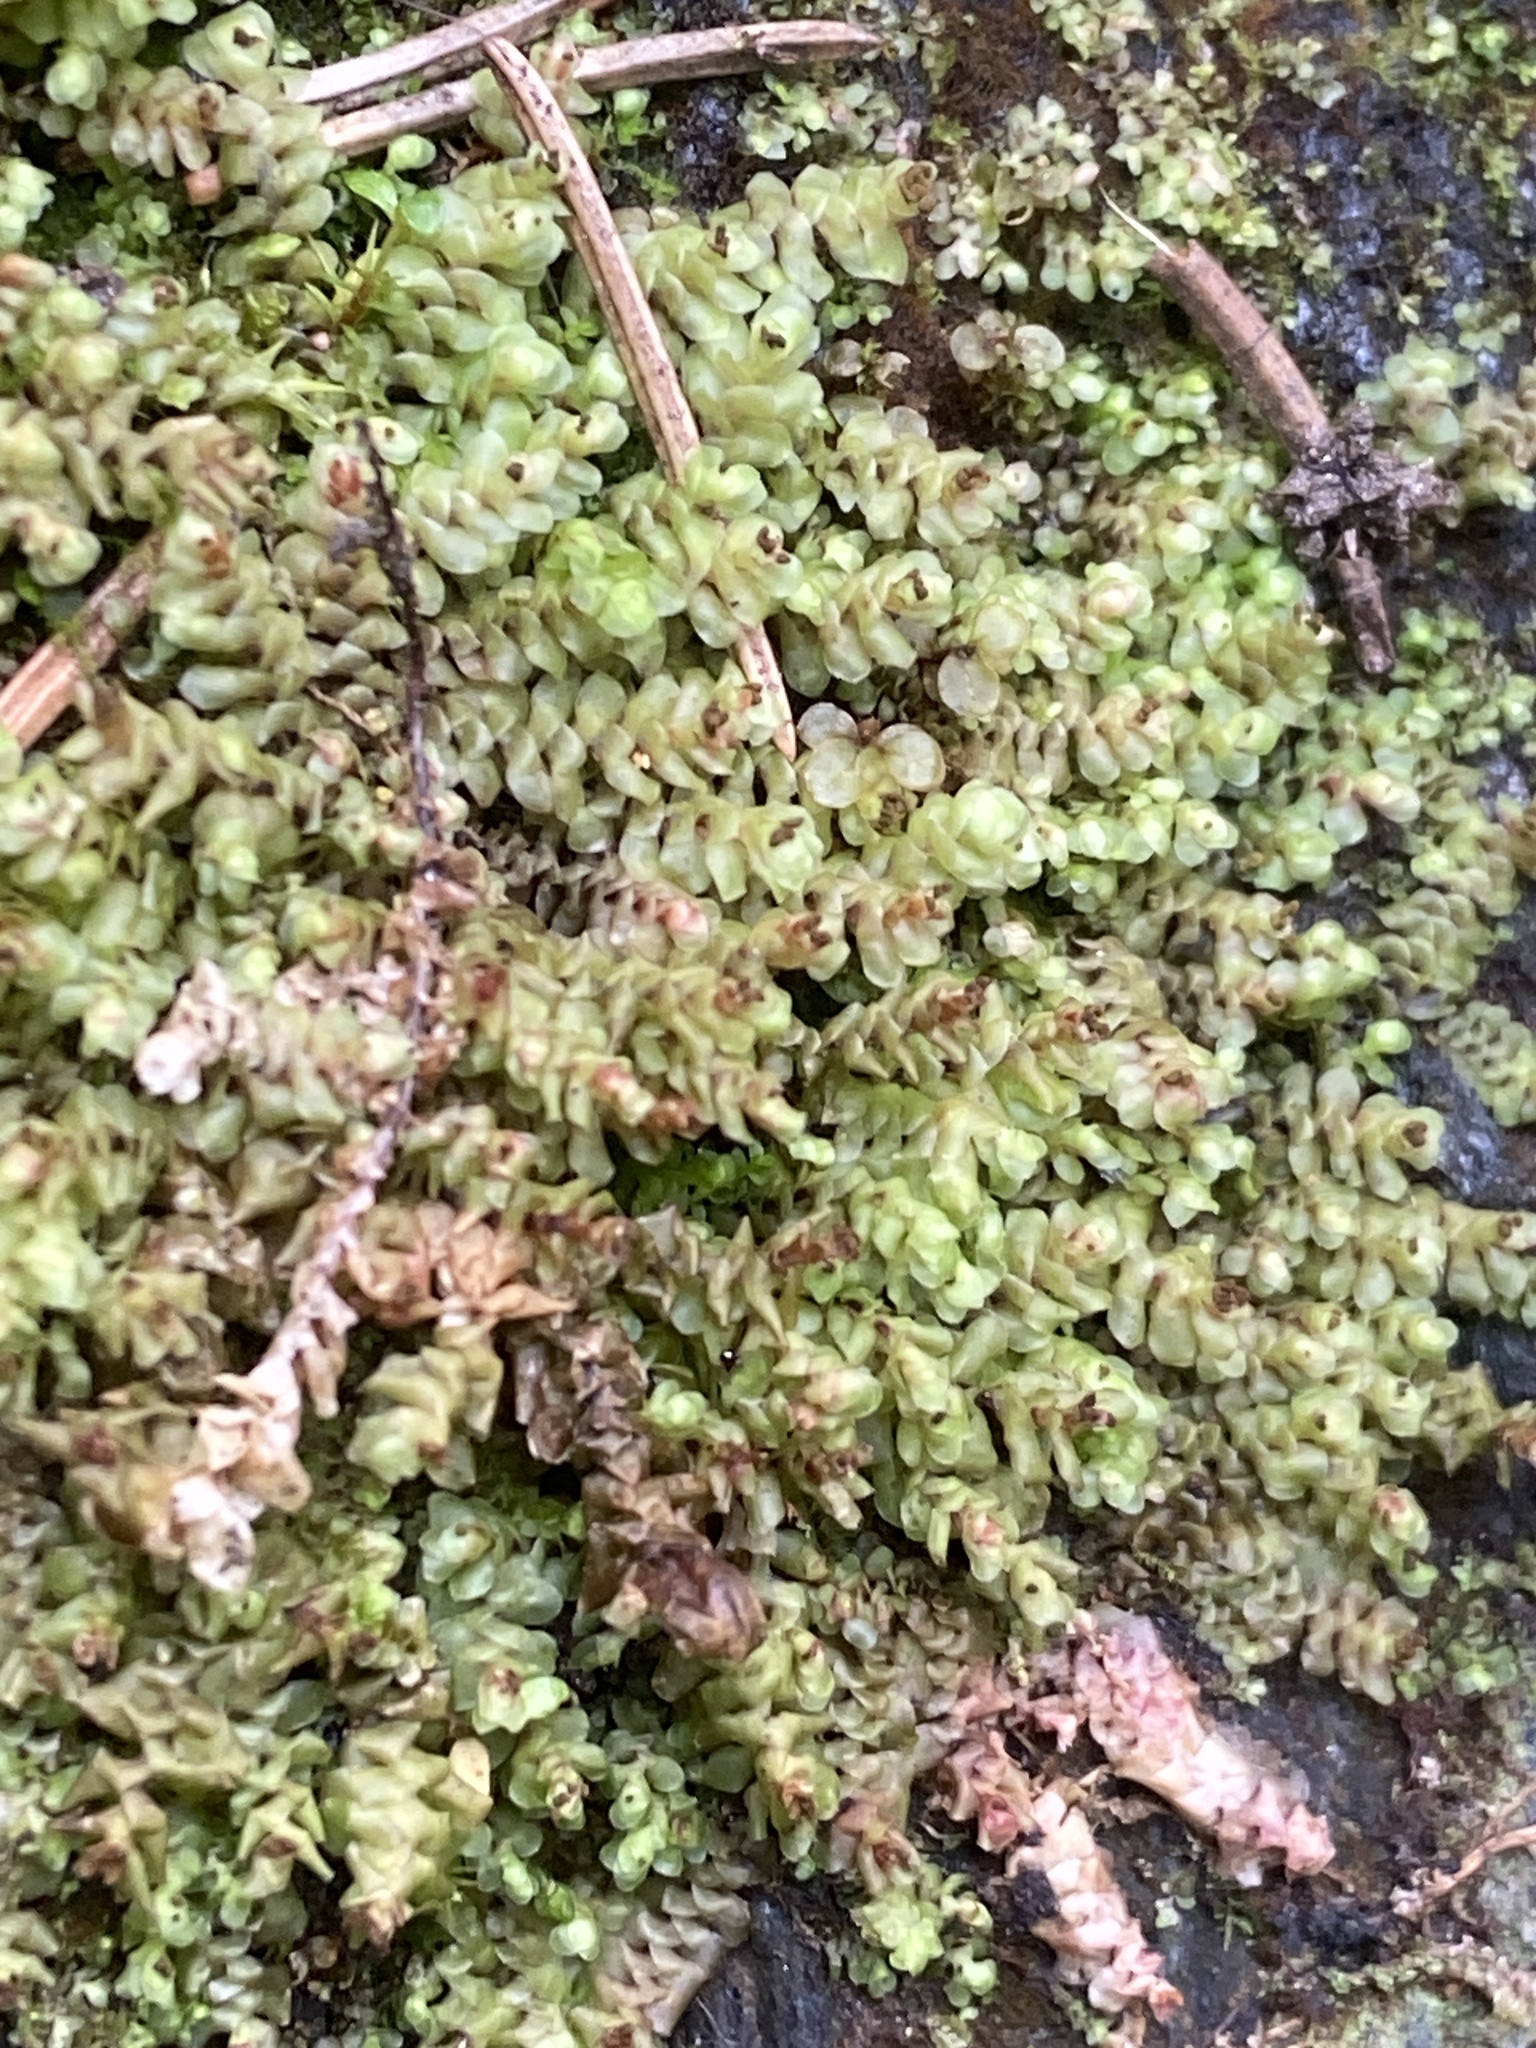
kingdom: Plantae
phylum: Marchantiophyta
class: Jungermanniopsida
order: Jungermanniales
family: Scapaniaceae
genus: Scapania
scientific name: Scapania nemorea
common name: Grove earwort
